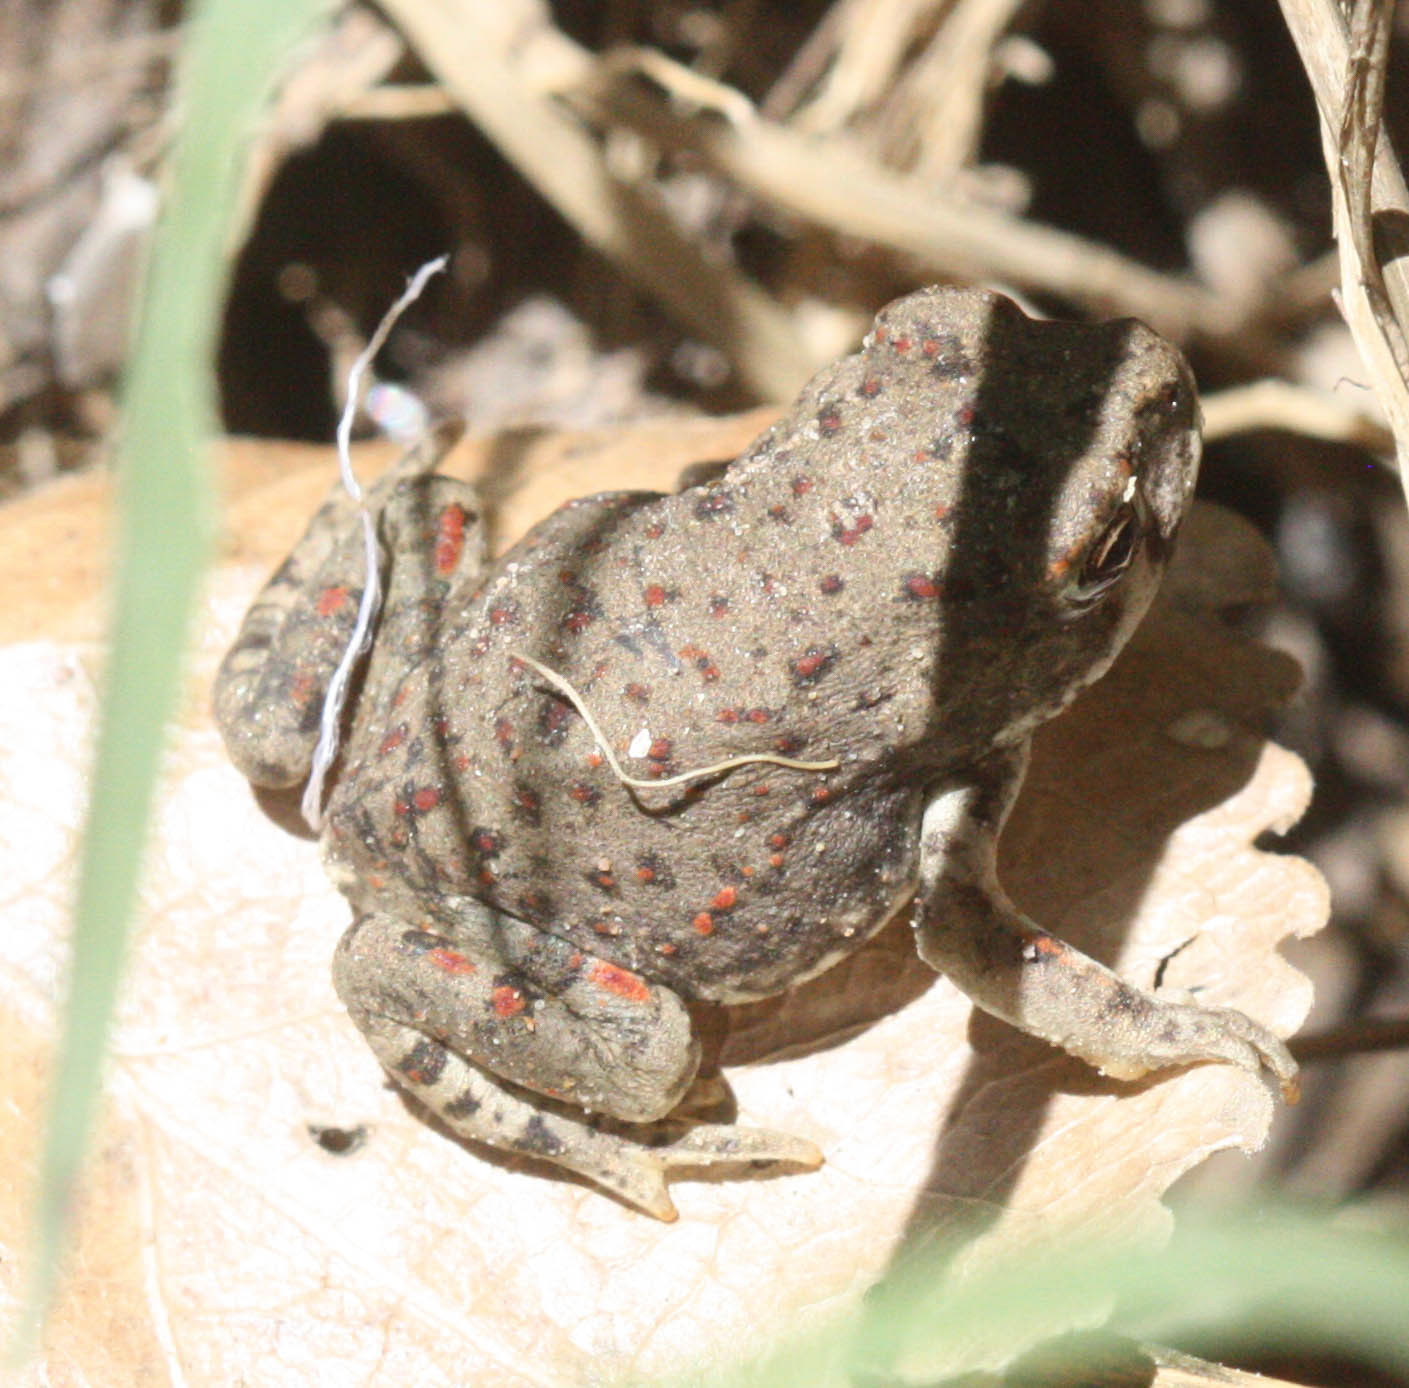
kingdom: Animalia
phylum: Chordata
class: Amphibia
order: Anura
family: Bufonidae
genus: Anaxyrus
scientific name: Anaxyrus punctatus
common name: Red-spotted toad
